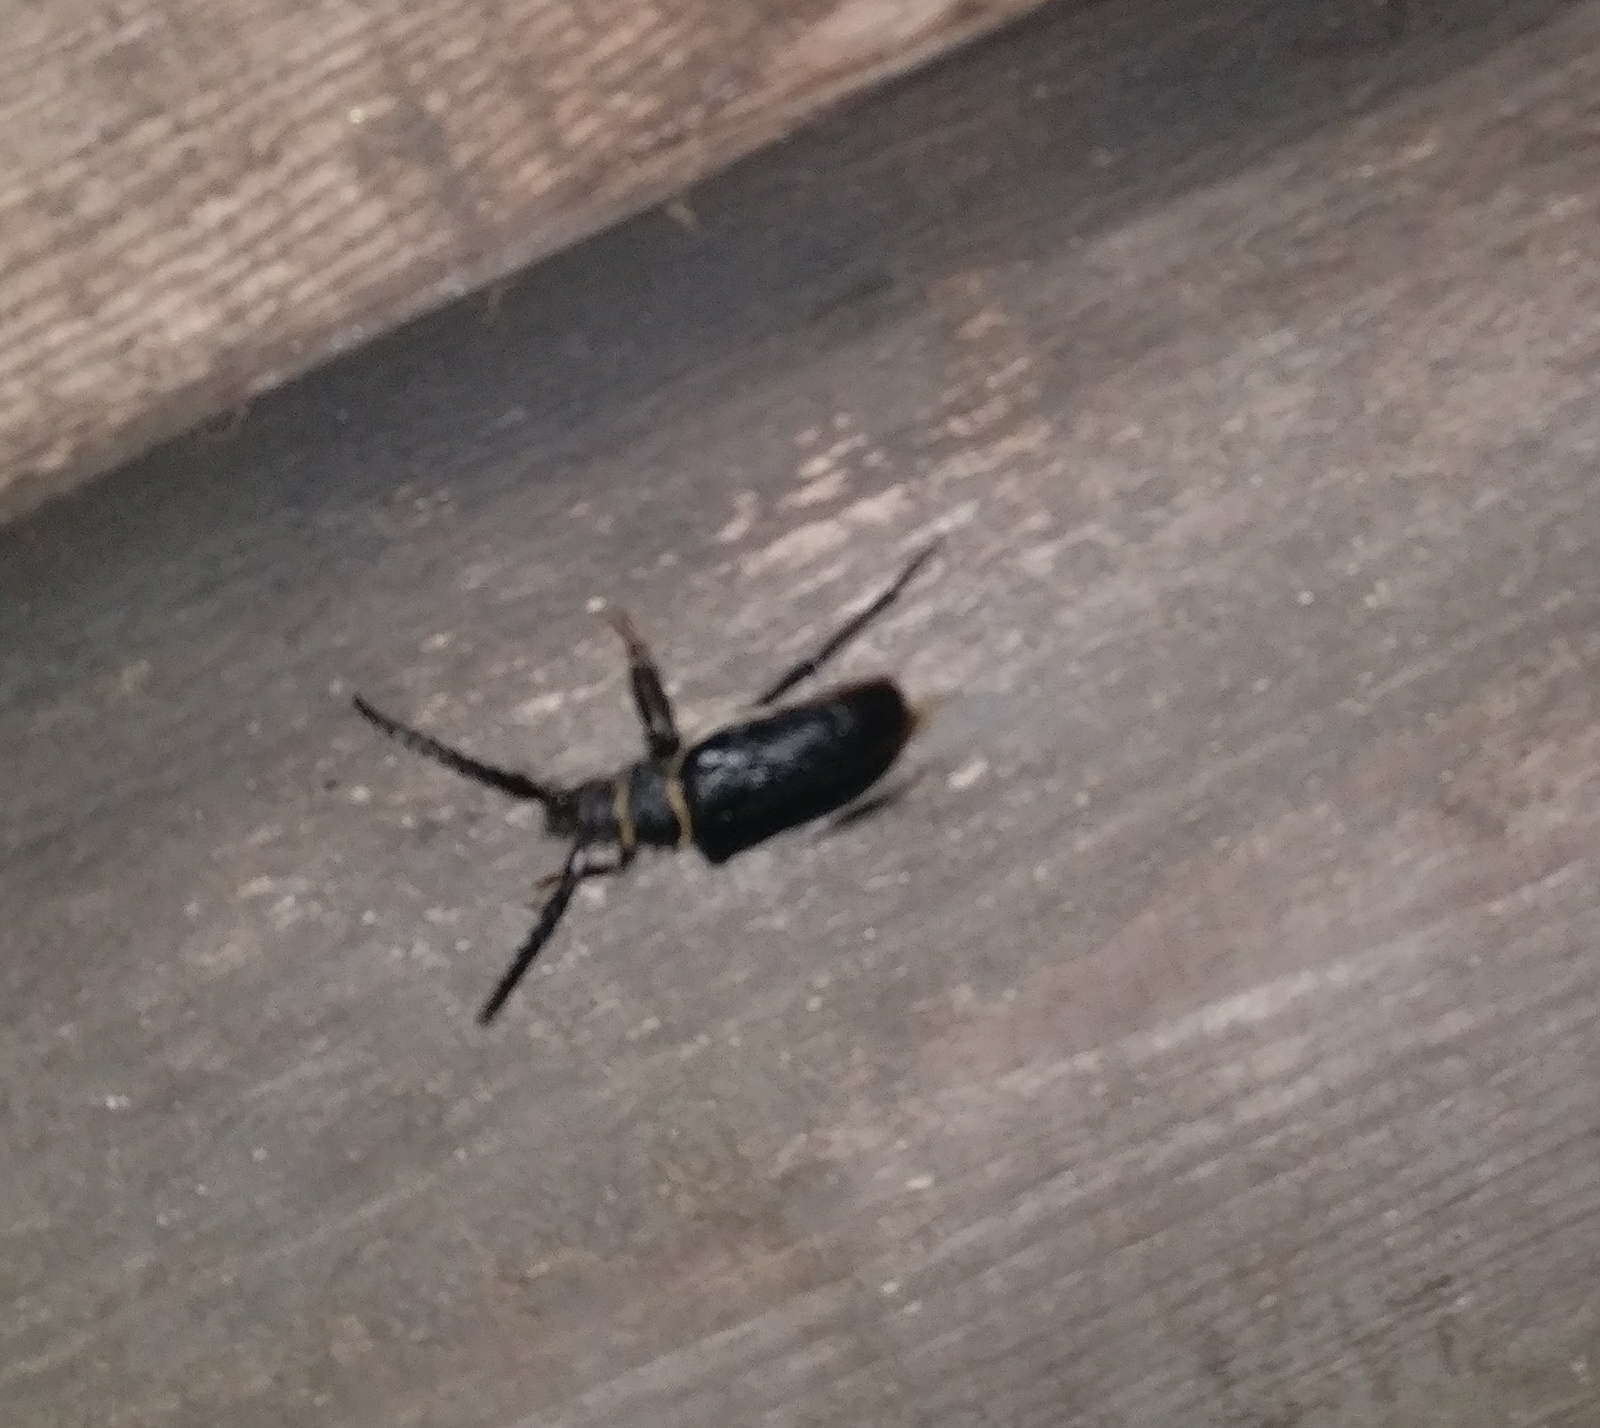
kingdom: Animalia
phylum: Arthropoda
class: Insecta
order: Coleoptera
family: Cerambycidae
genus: Prionus
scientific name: Prionus coriarius
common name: Tanner beetle
